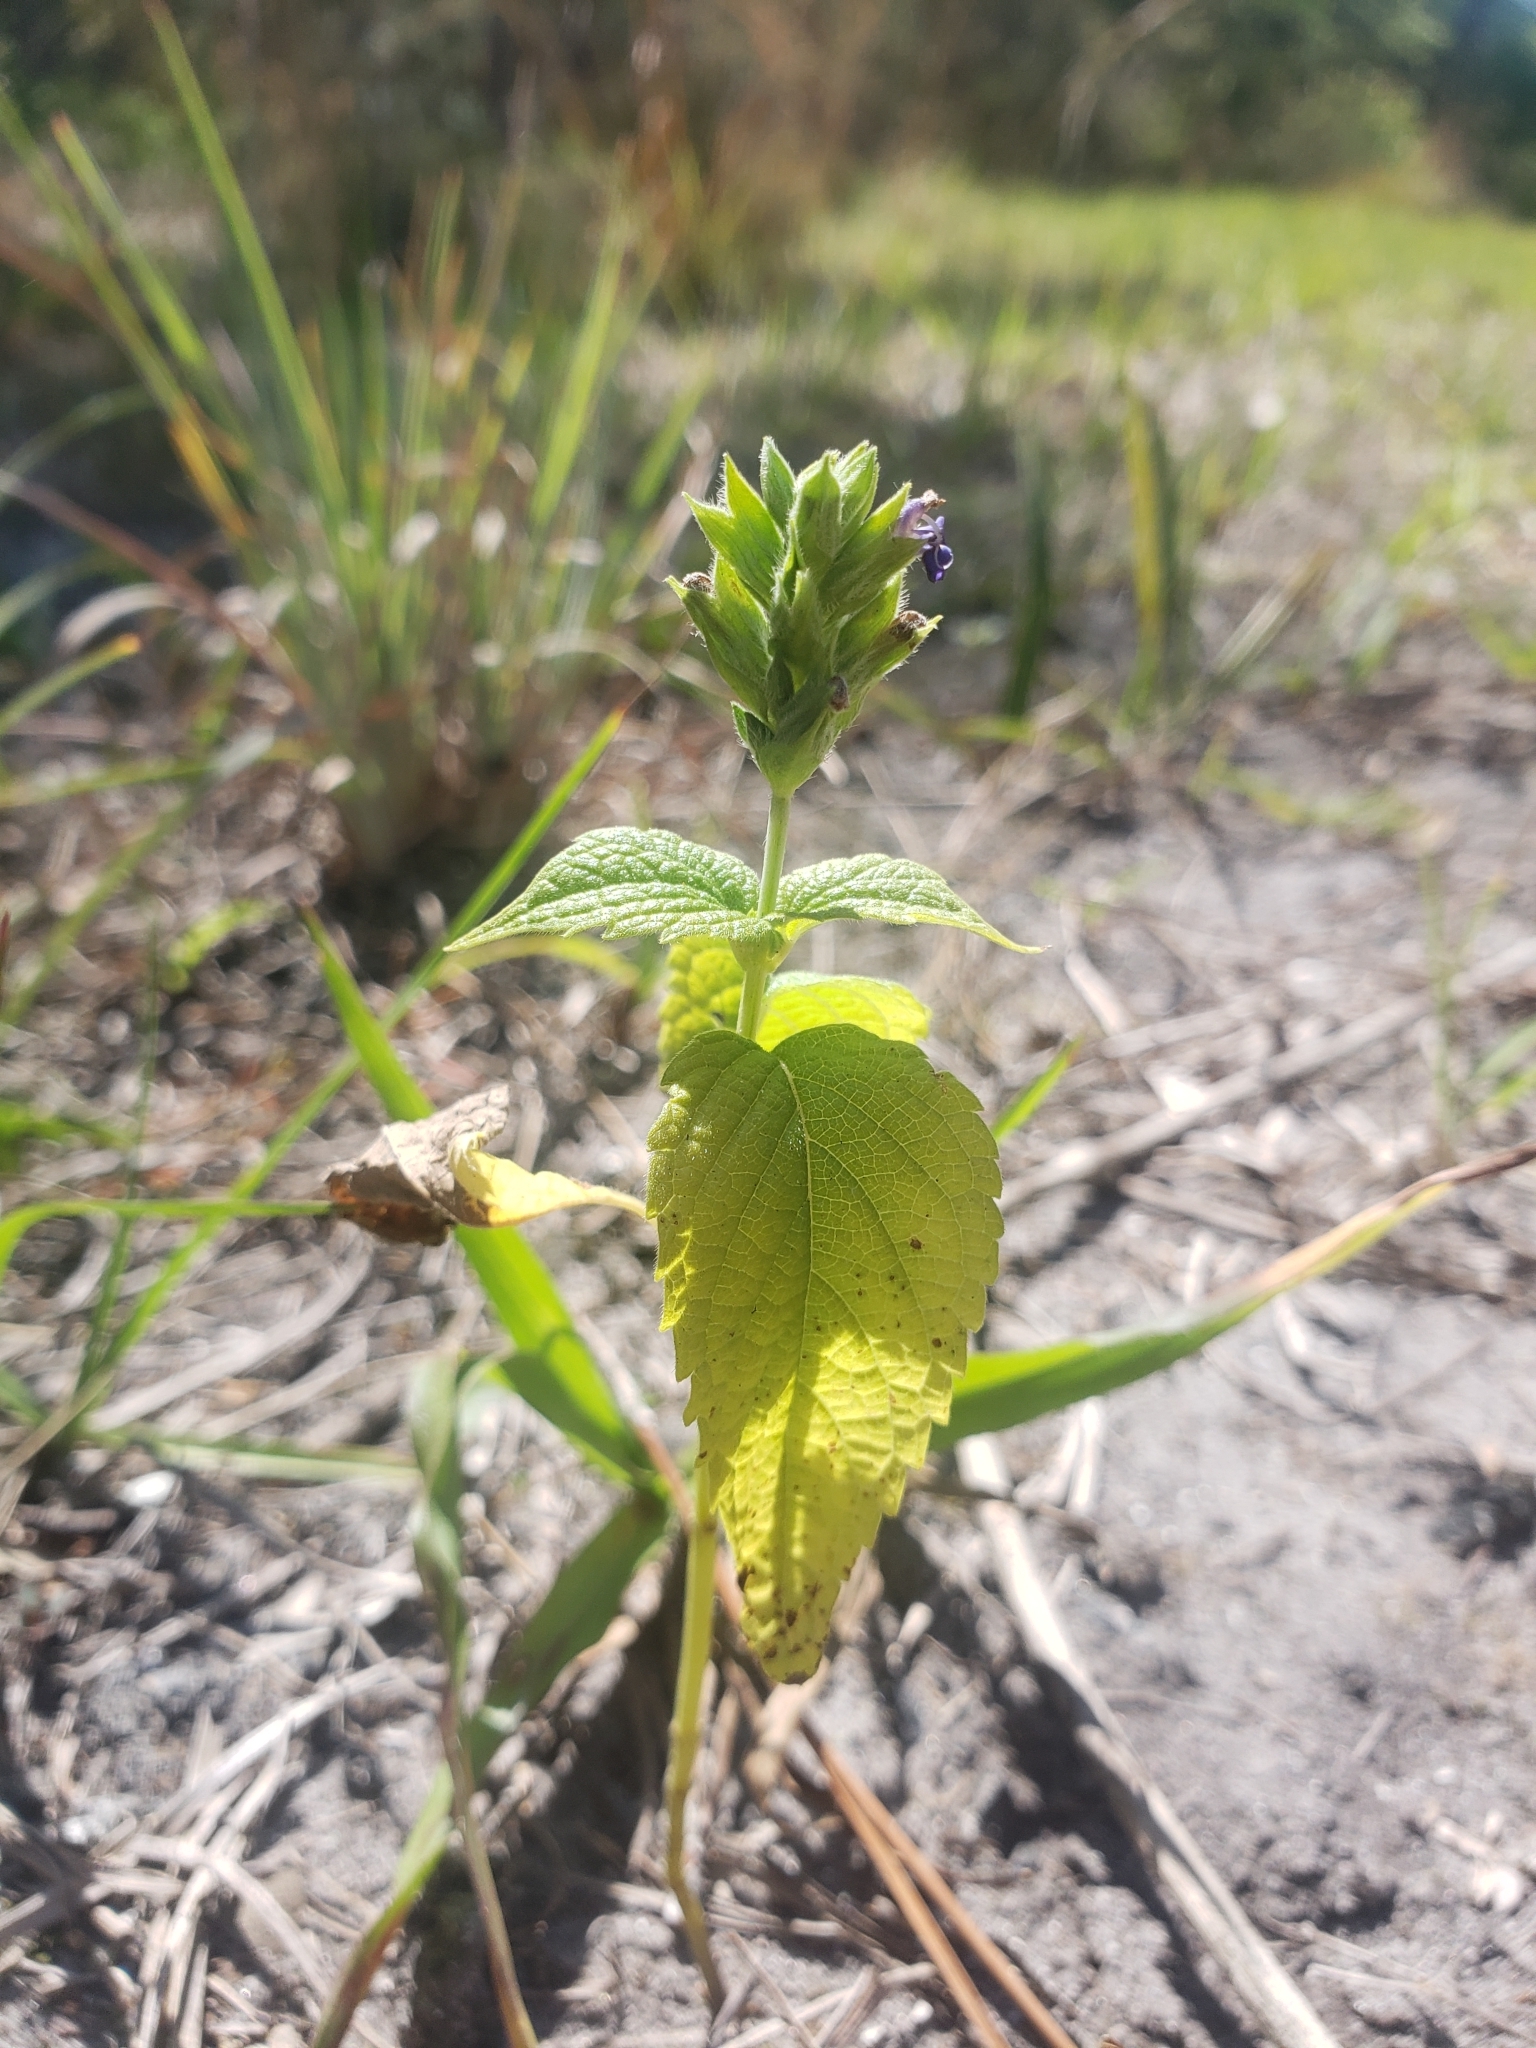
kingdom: Plantae
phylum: Tracheophyta
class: Magnoliopsida
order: Lamiales
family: Lamiaceae
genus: Salvia
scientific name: Salvia hispanica
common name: Chia
